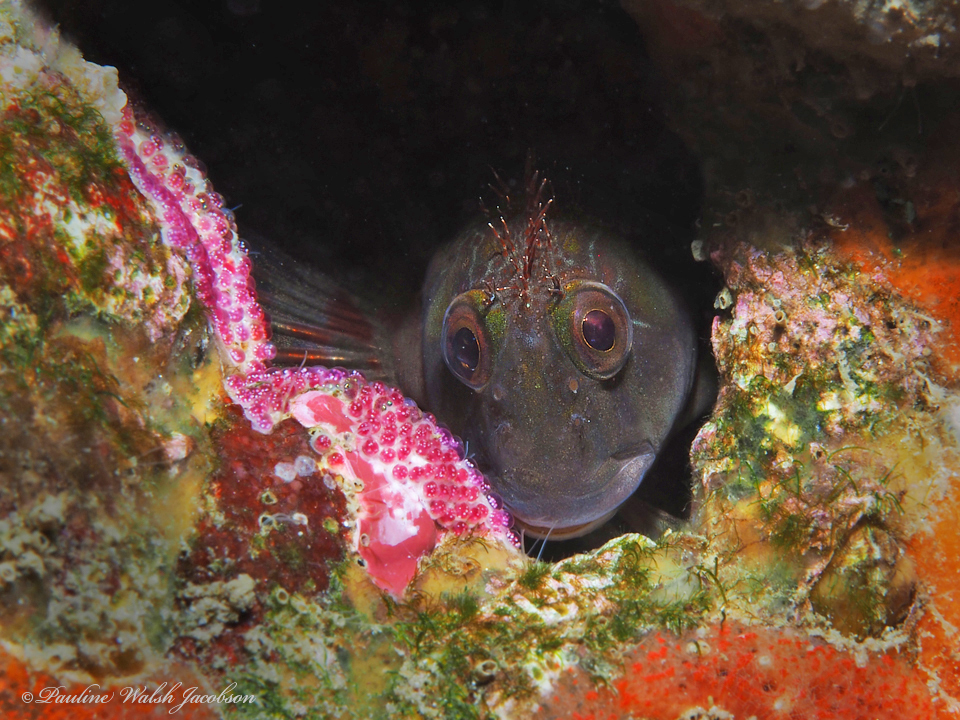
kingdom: Animalia
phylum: Chordata
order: Perciformes
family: Blenniidae
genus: Scartella
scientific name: Scartella cristata
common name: Molly miller
